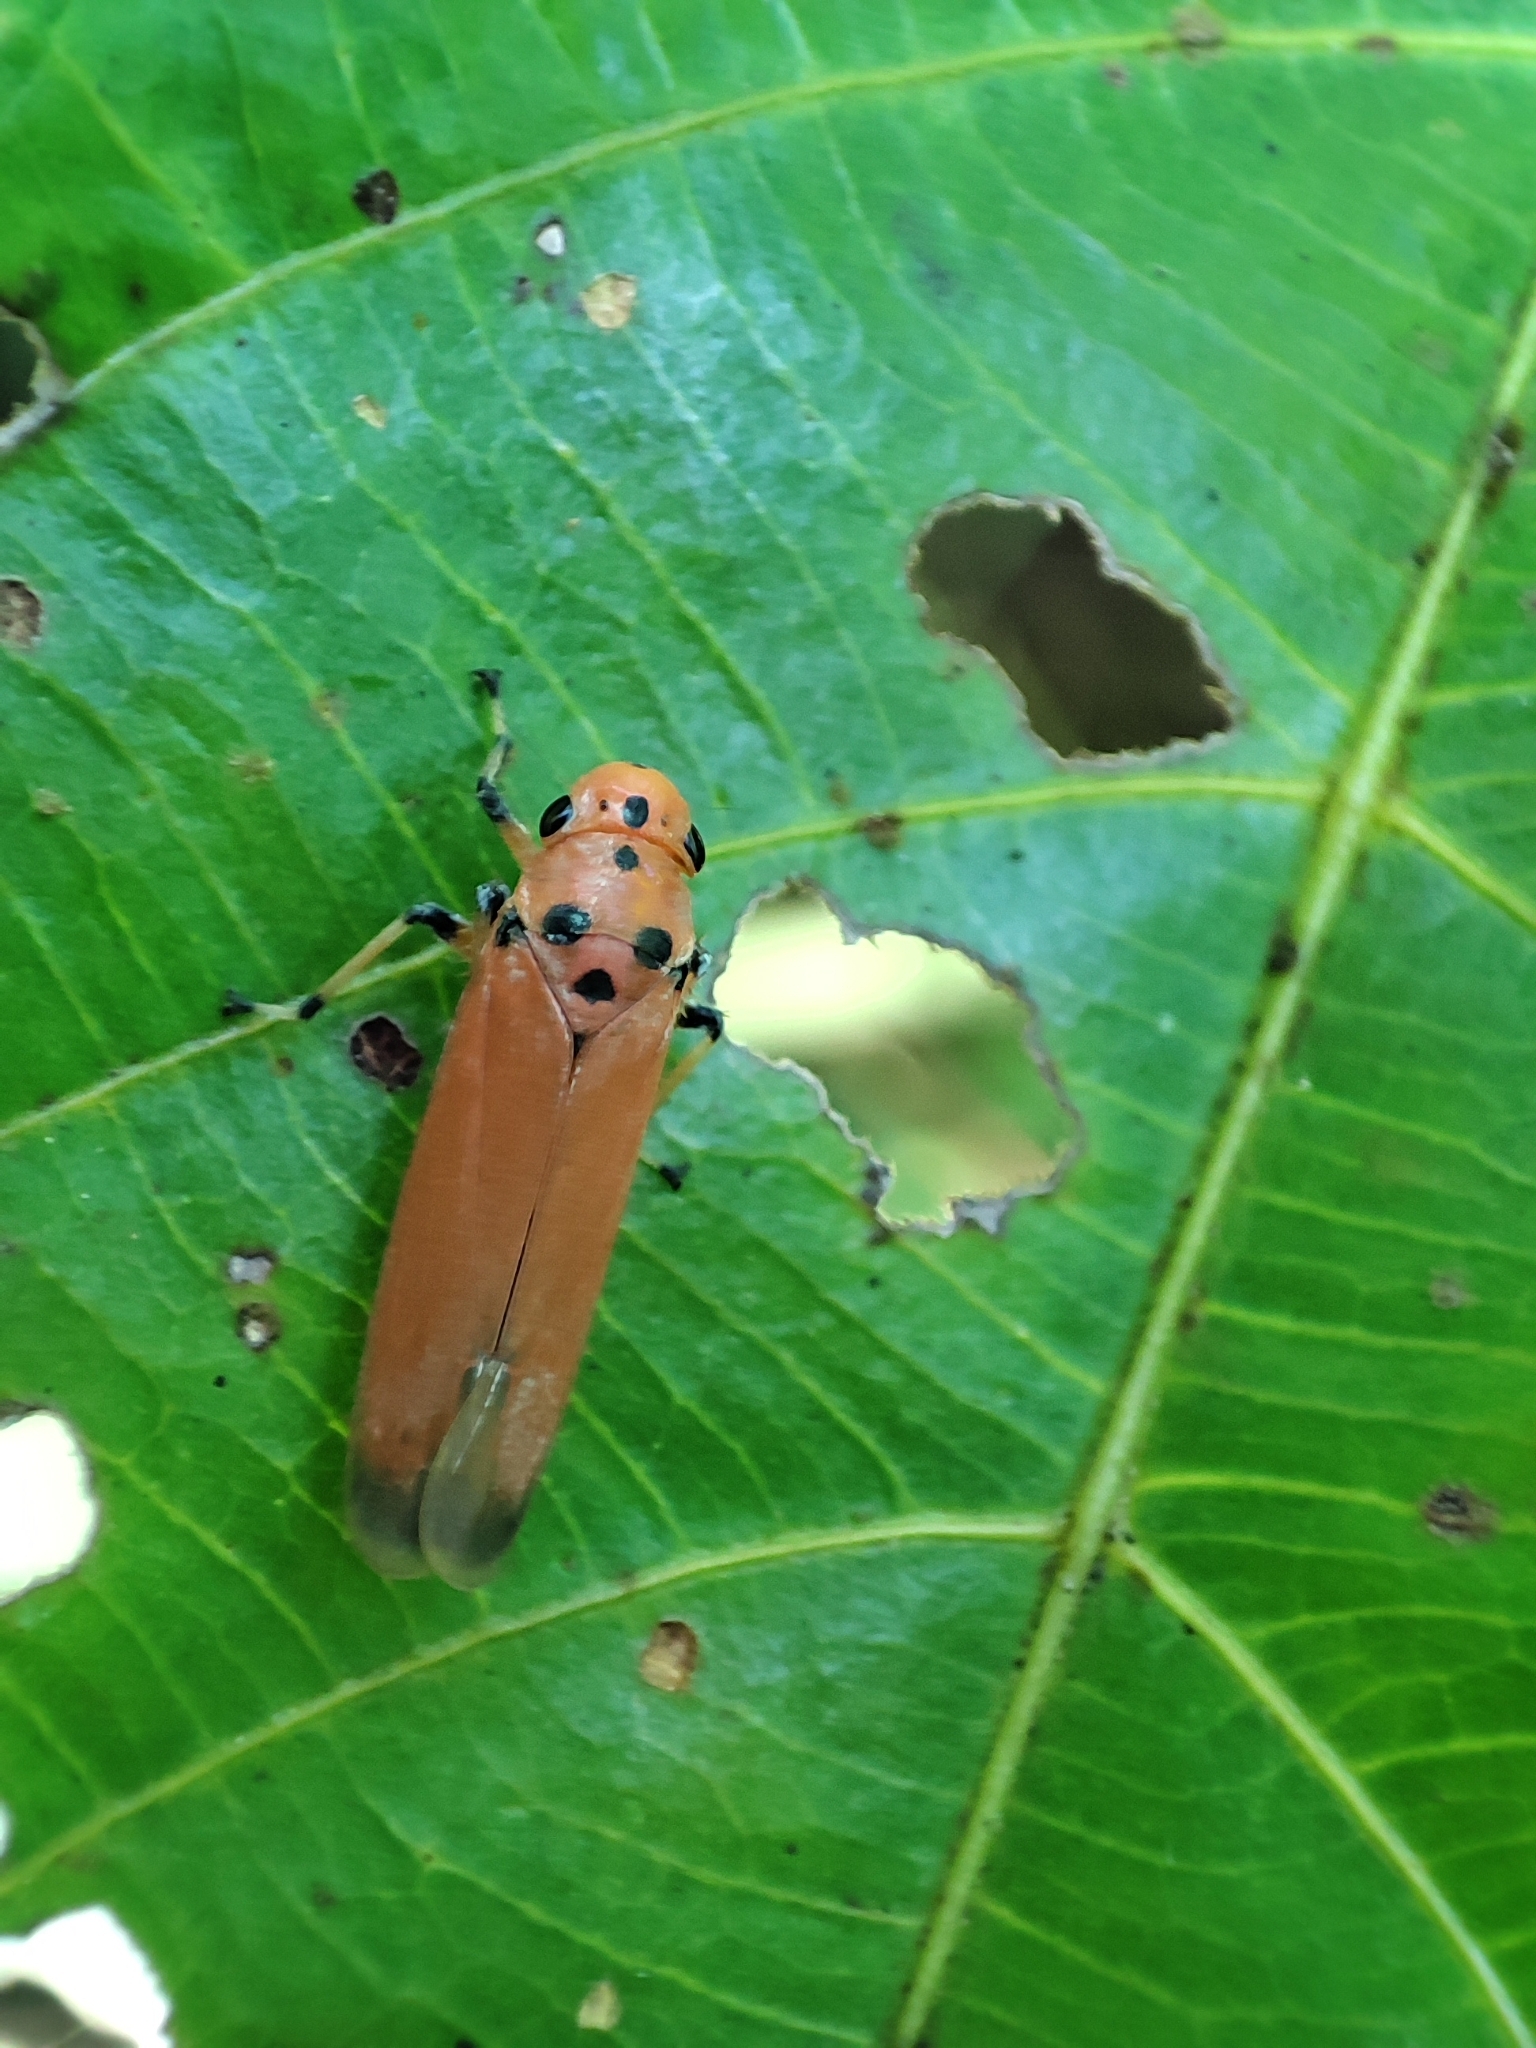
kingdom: Animalia
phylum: Arthropoda
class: Insecta
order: Hemiptera
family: Cicadellidae
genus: Bothrogonia
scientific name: Bothrogonia addita
